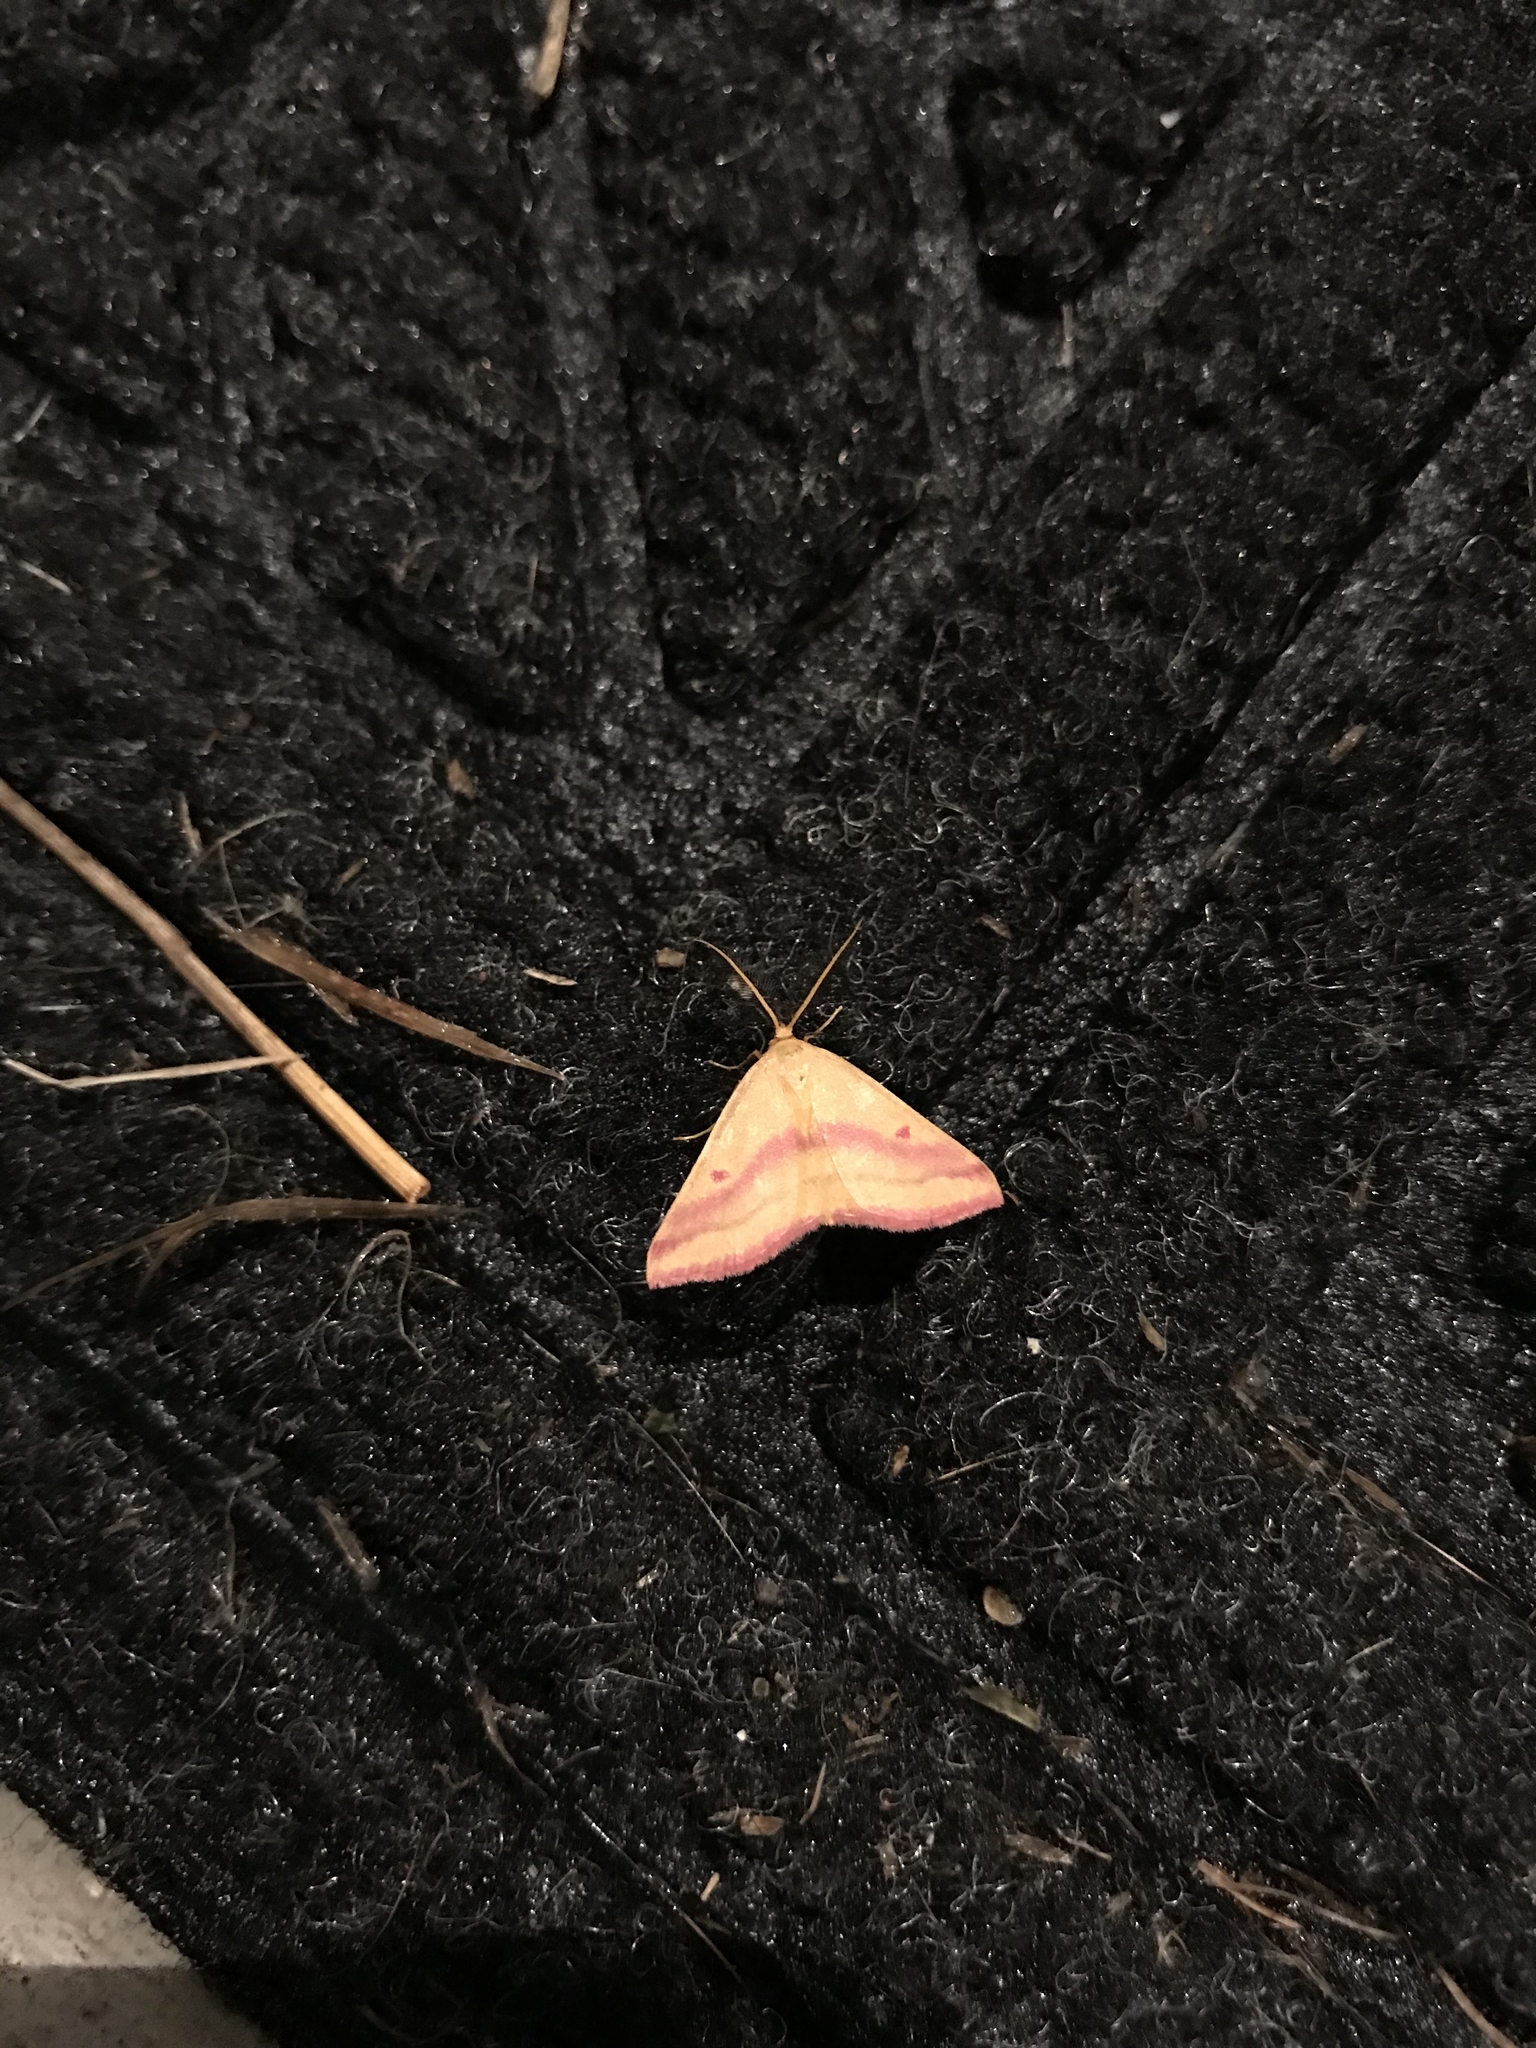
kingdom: Animalia
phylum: Arthropoda
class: Insecta
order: Lepidoptera
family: Geometridae
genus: Haematopis
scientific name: Haematopis grataria
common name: Chickweed geometer
